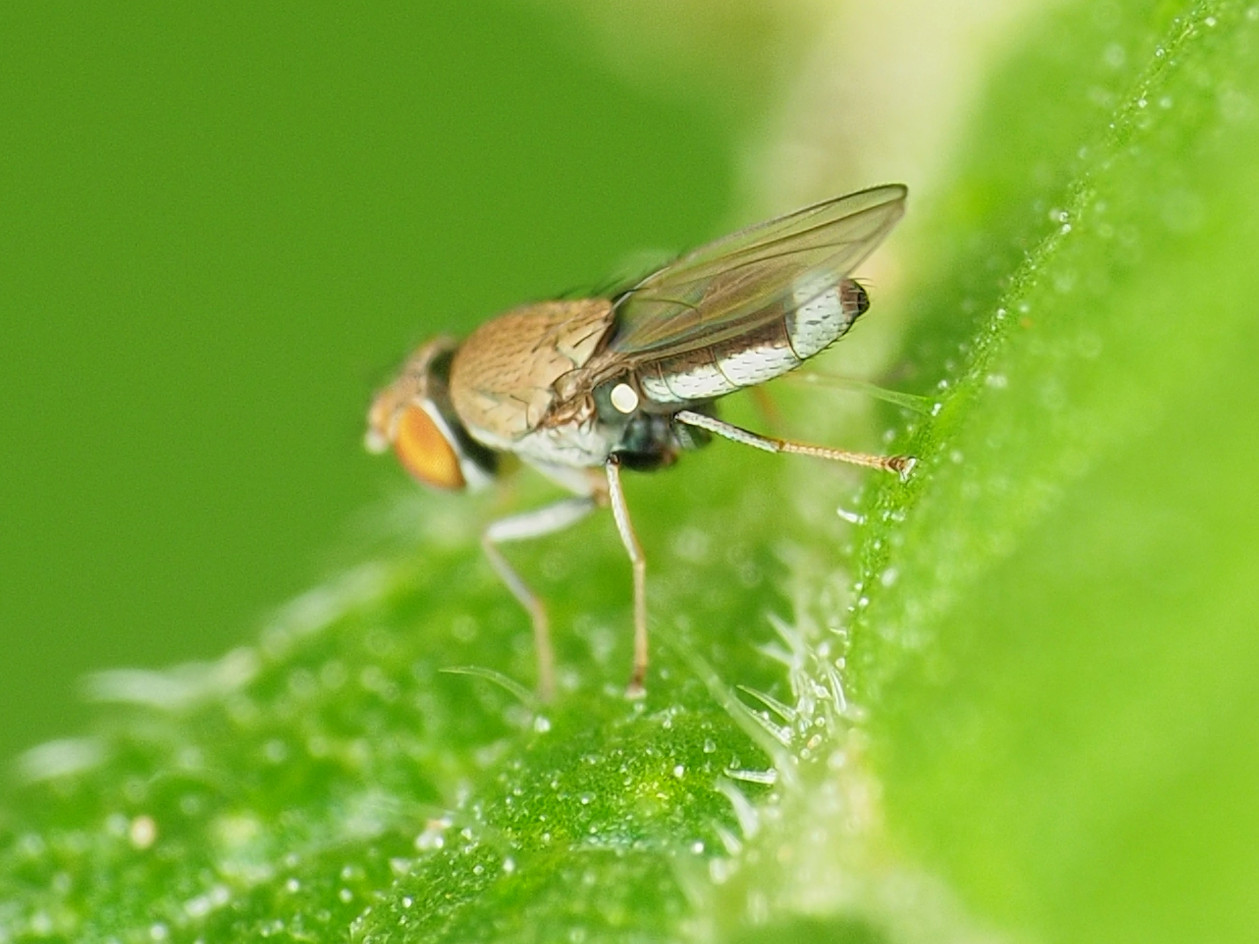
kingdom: Animalia
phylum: Arthropoda
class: Insecta
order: Diptera
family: Ephydridae
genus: Aquachasma
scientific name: Aquachasma leucoproctum
